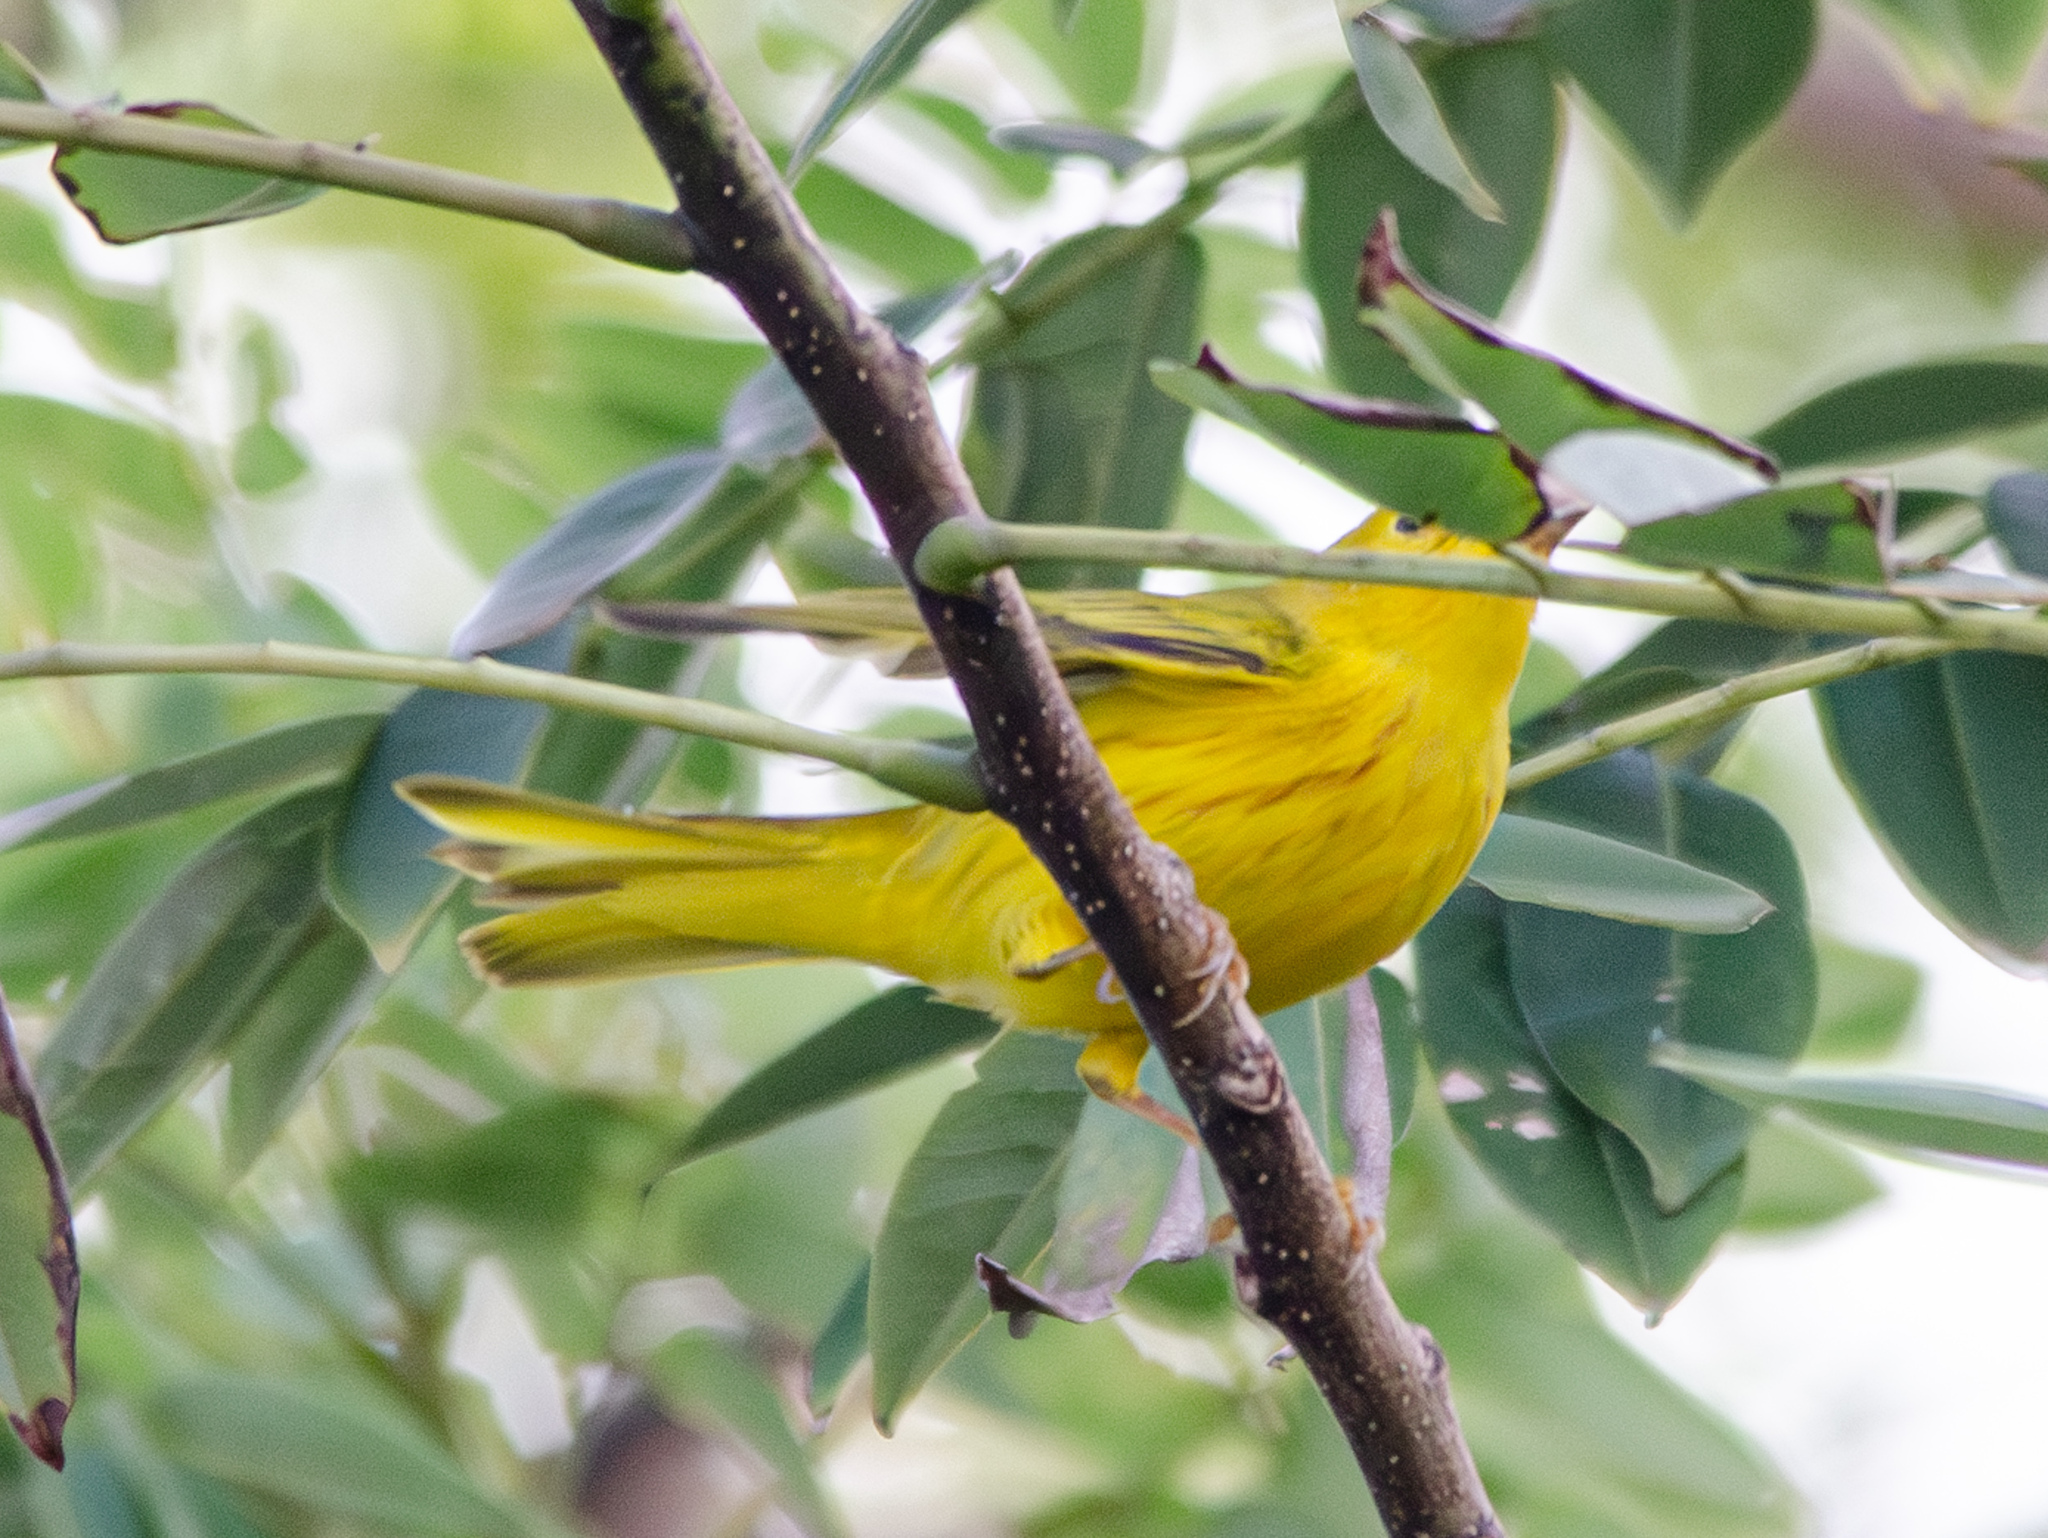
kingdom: Animalia
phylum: Chordata
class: Aves
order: Passeriformes
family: Parulidae
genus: Setophaga
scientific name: Setophaga petechia
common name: Yellow warbler
